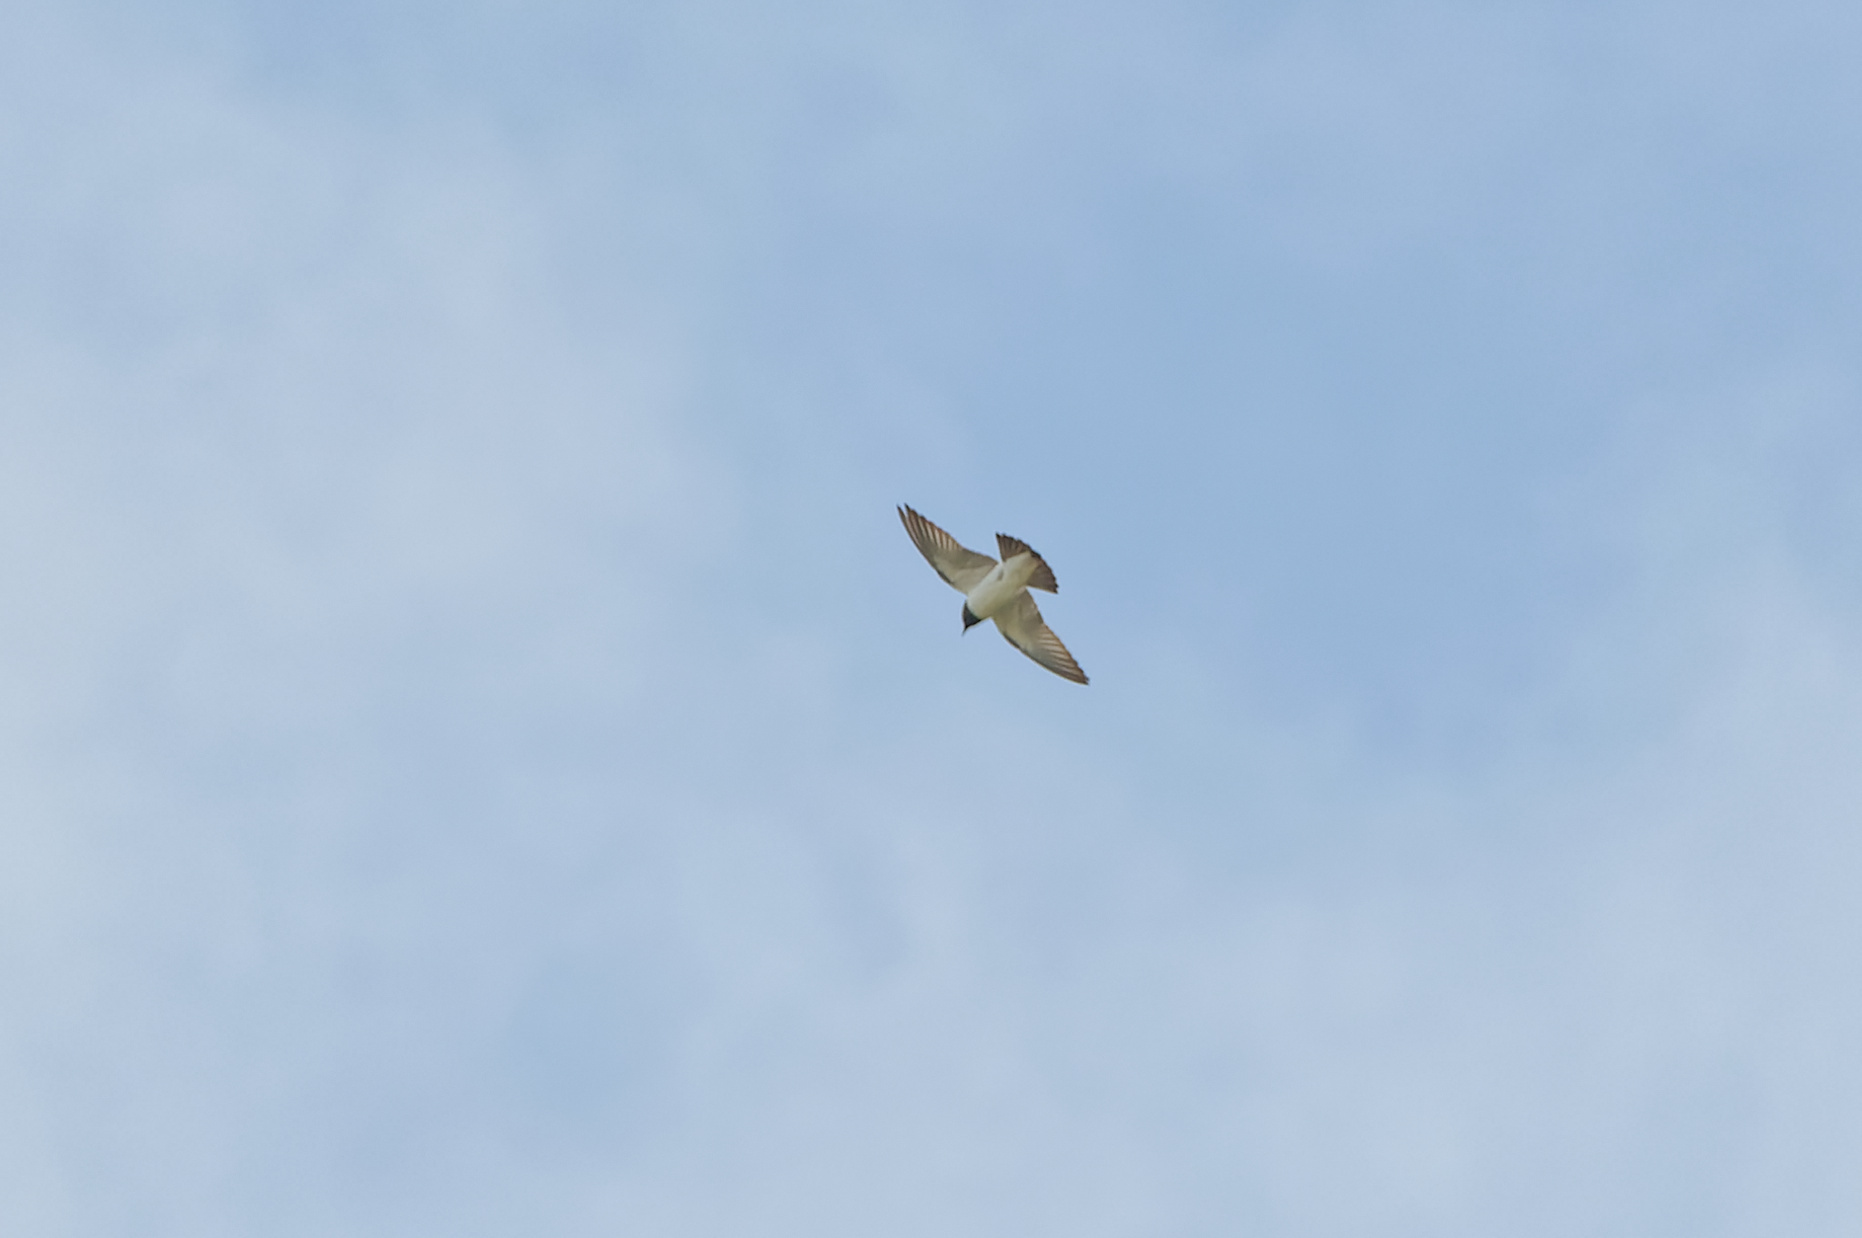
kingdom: Animalia
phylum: Chordata
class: Aves
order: Passeriformes
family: Artamidae
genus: Artamus
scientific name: Artamus leucoryn
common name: White-breasted woodswallow
